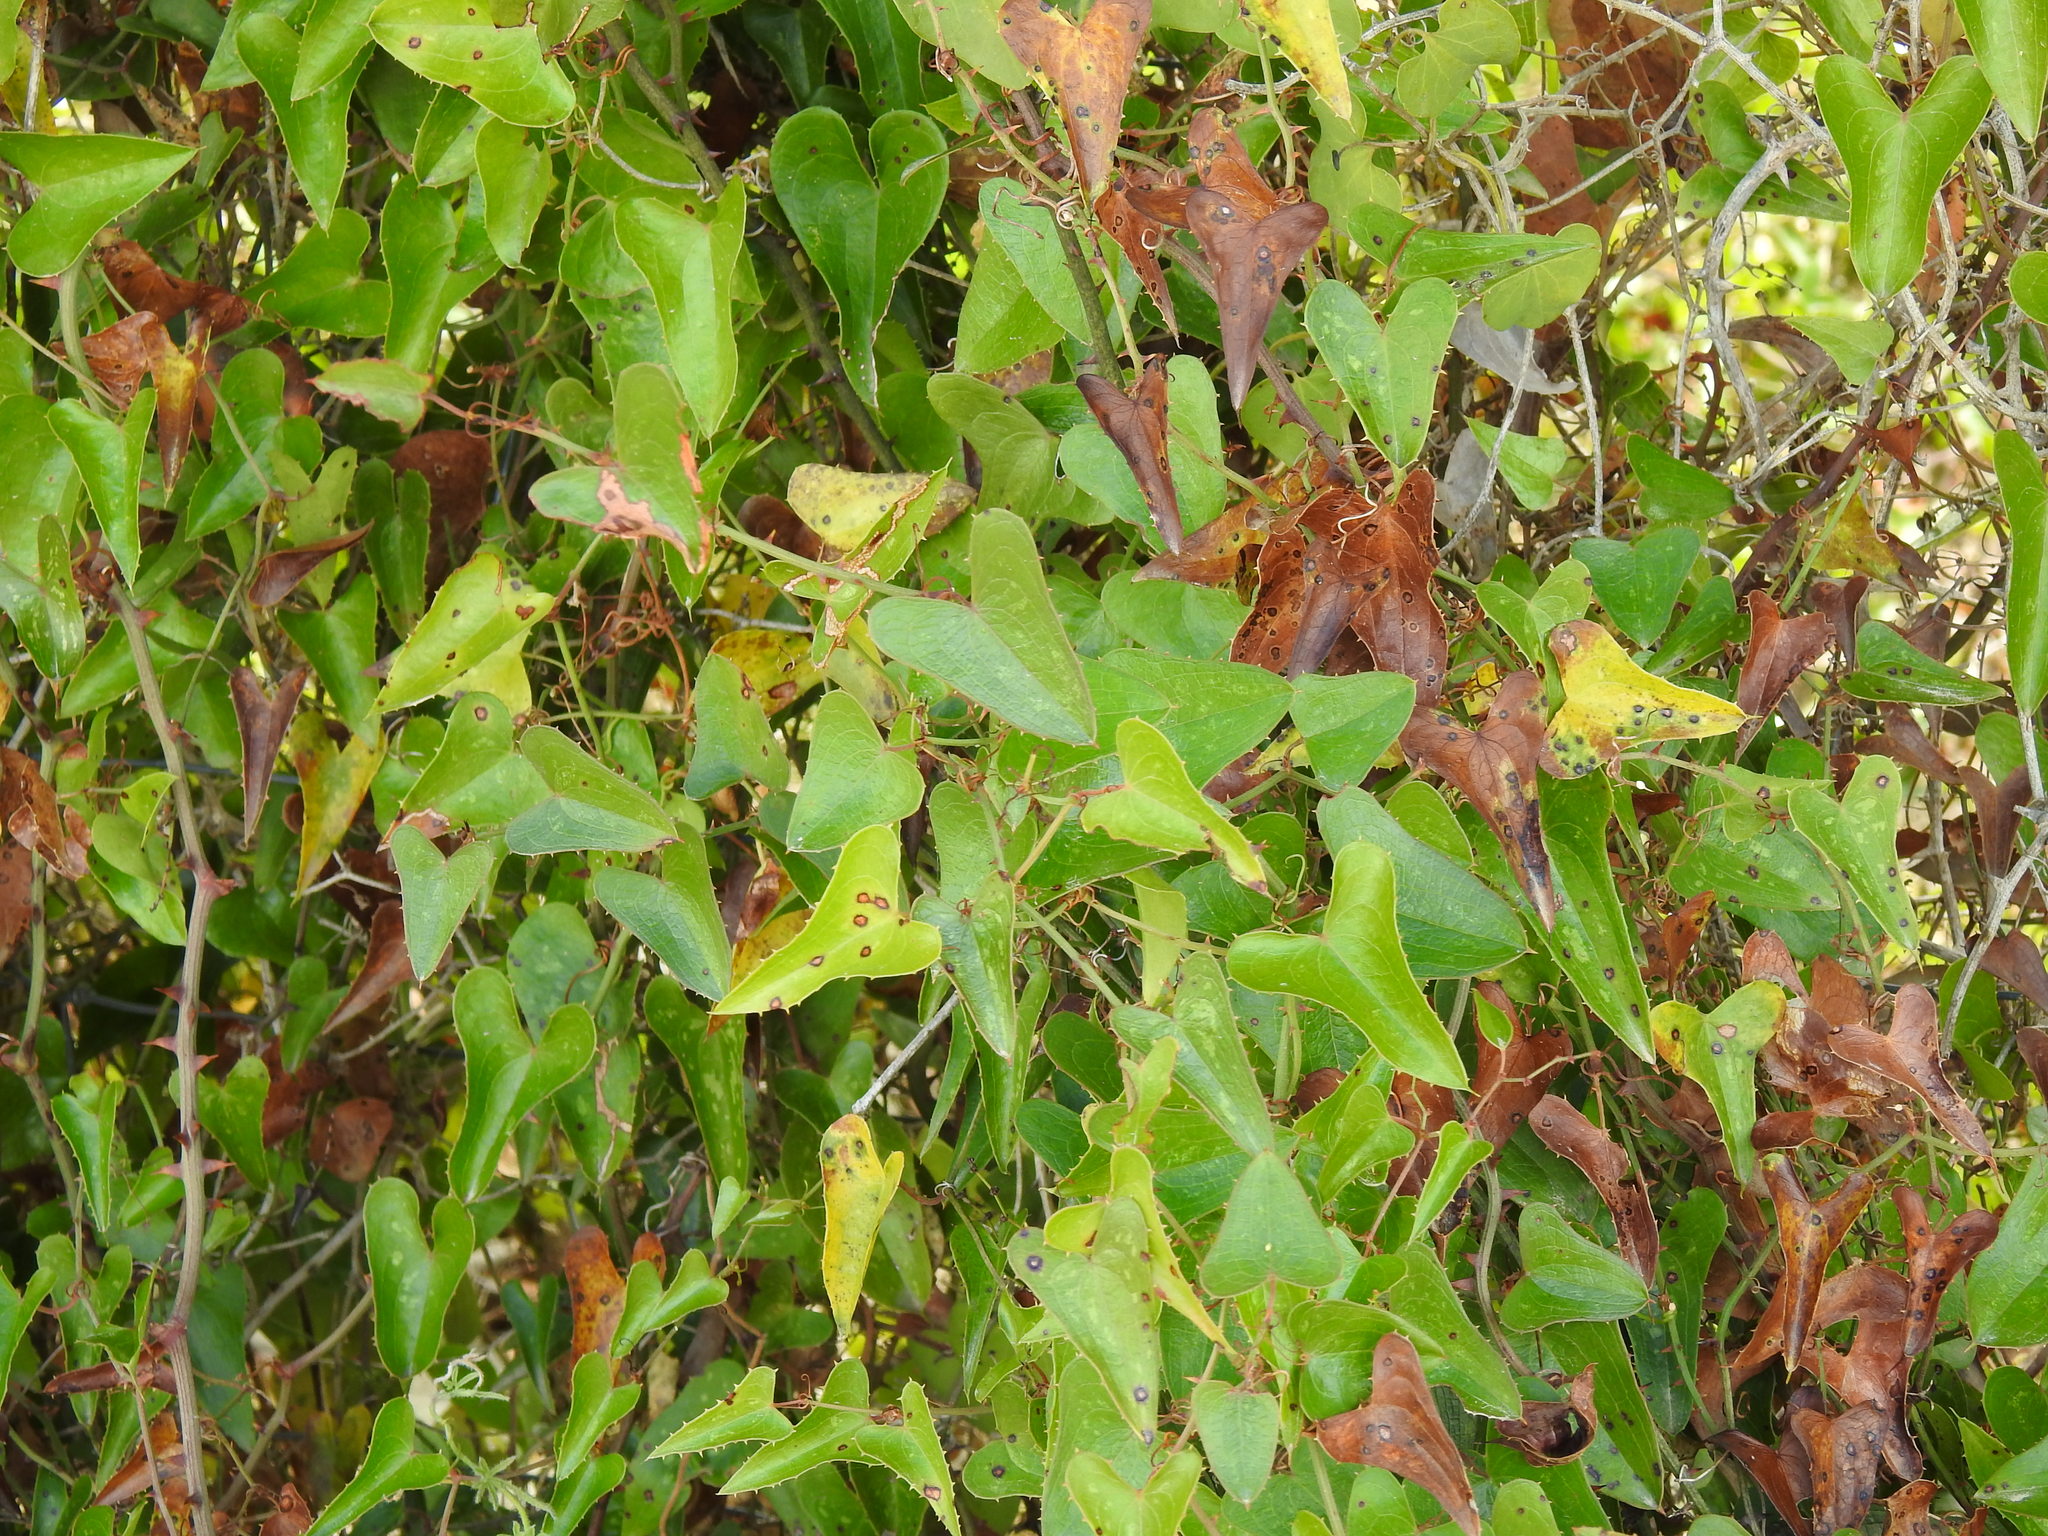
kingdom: Plantae
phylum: Tracheophyta
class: Liliopsida
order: Liliales
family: Smilacaceae
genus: Smilax
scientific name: Smilax aspera
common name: Common smilax
